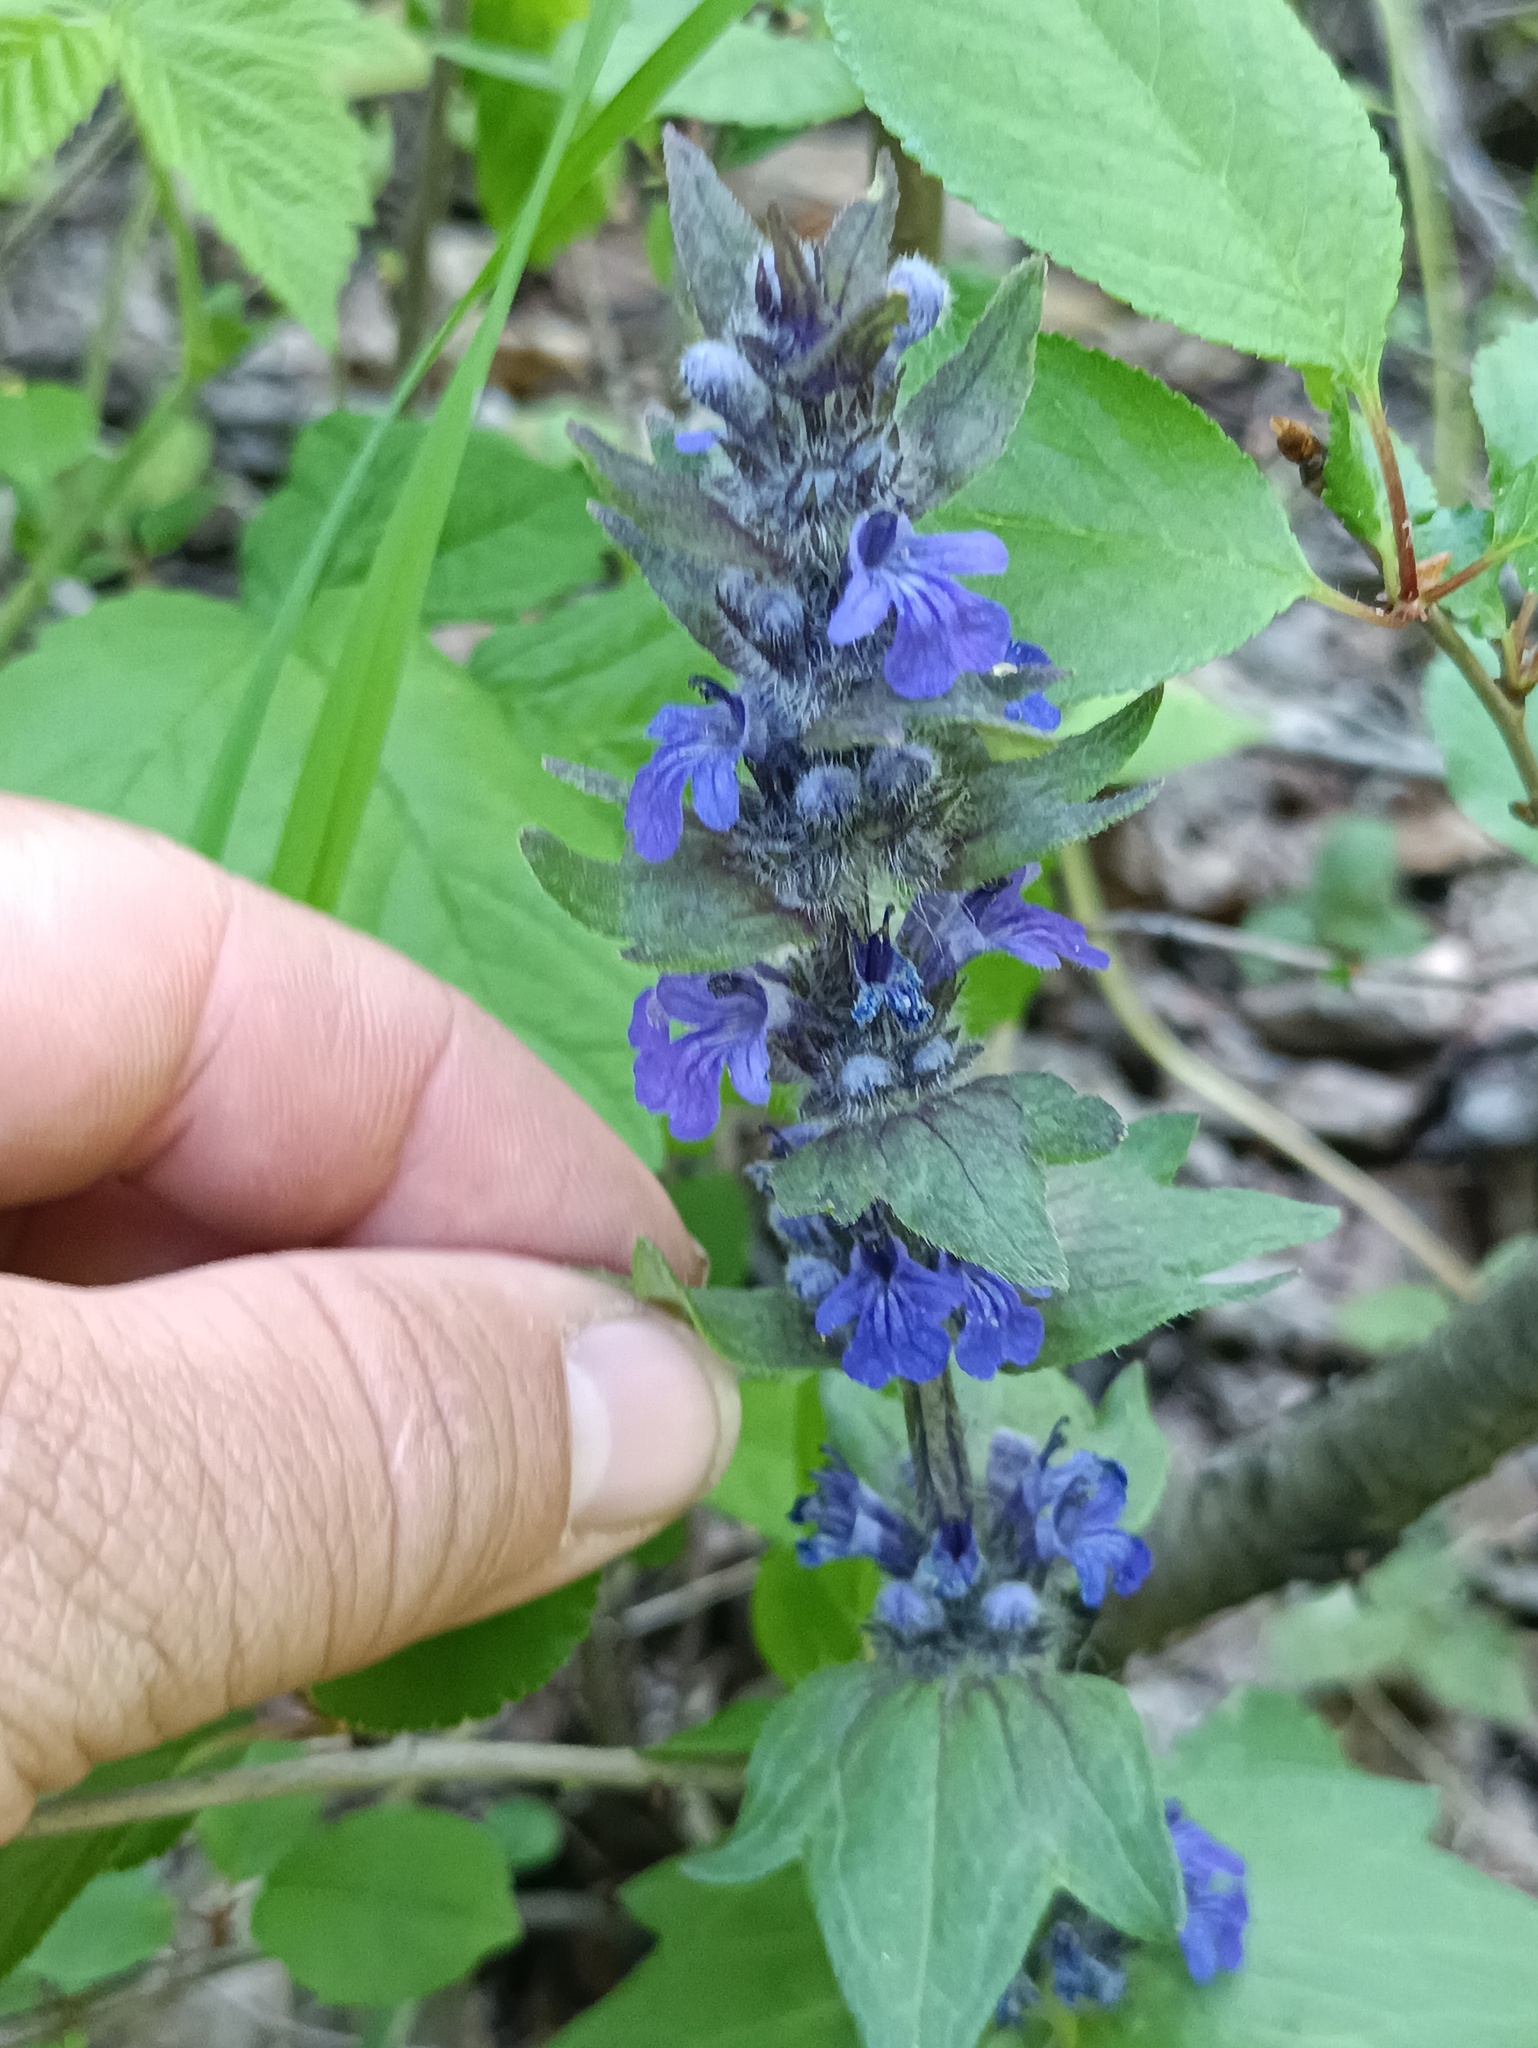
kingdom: Plantae
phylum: Tracheophyta
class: Magnoliopsida
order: Lamiales
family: Lamiaceae
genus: Ajuga
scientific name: Ajuga genevensis
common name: Blue bugle
